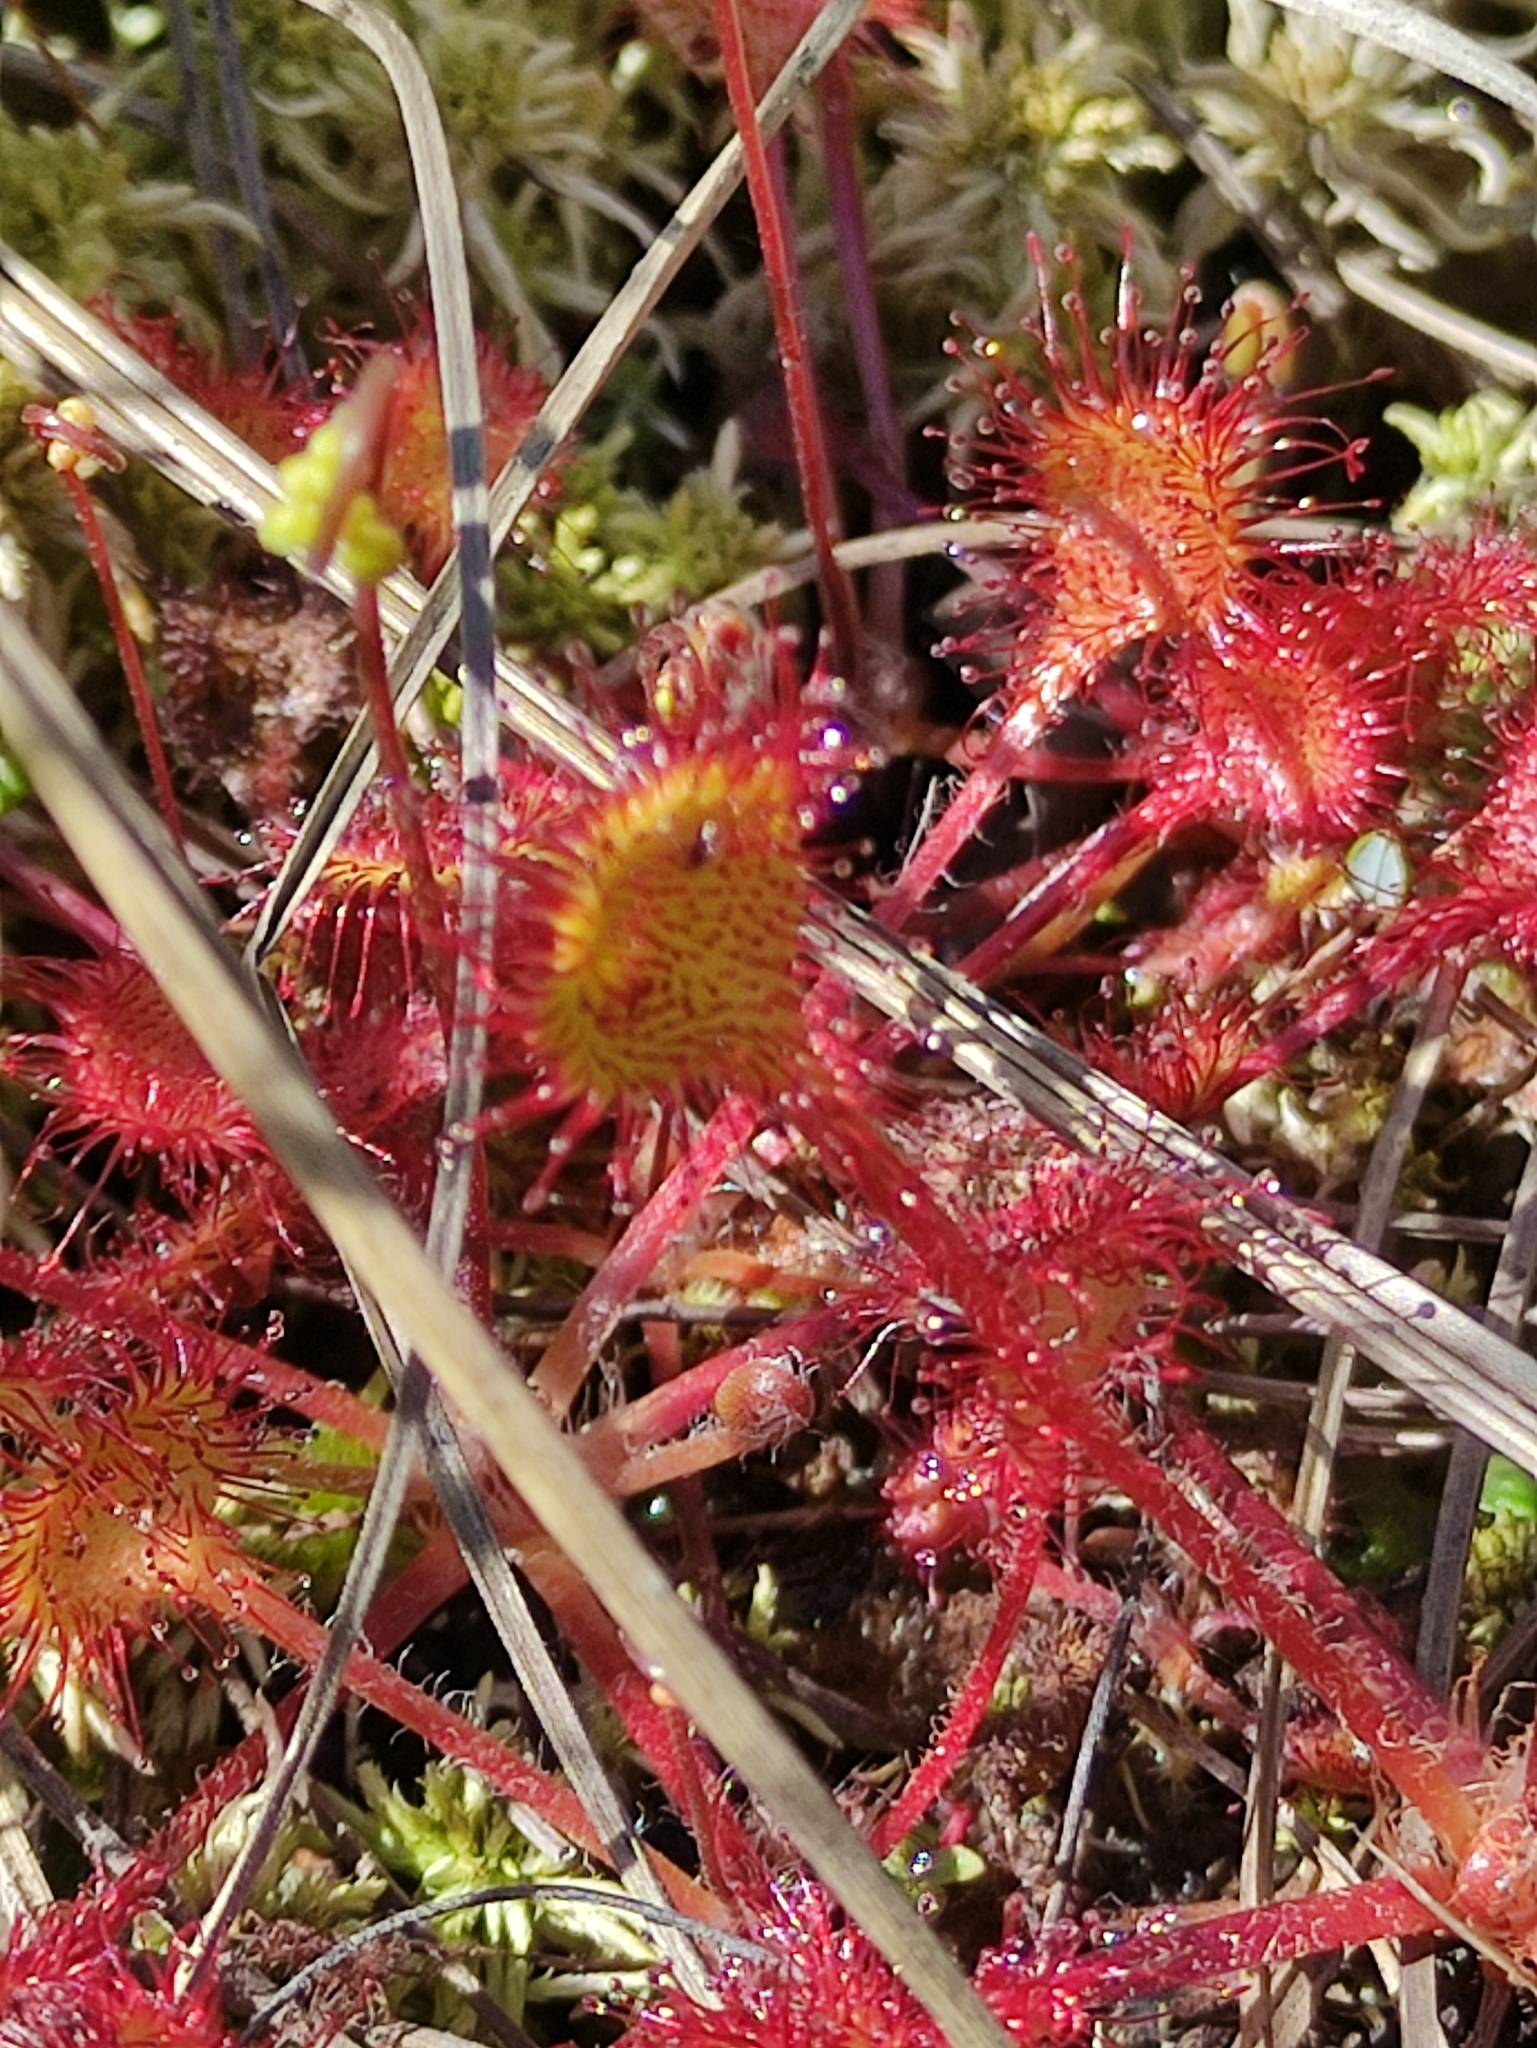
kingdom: Plantae
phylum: Tracheophyta
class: Magnoliopsida
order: Caryophyllales
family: Droseraceae
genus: Drosera
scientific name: Drosera rotundifolia
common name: Round-leaved sundew
